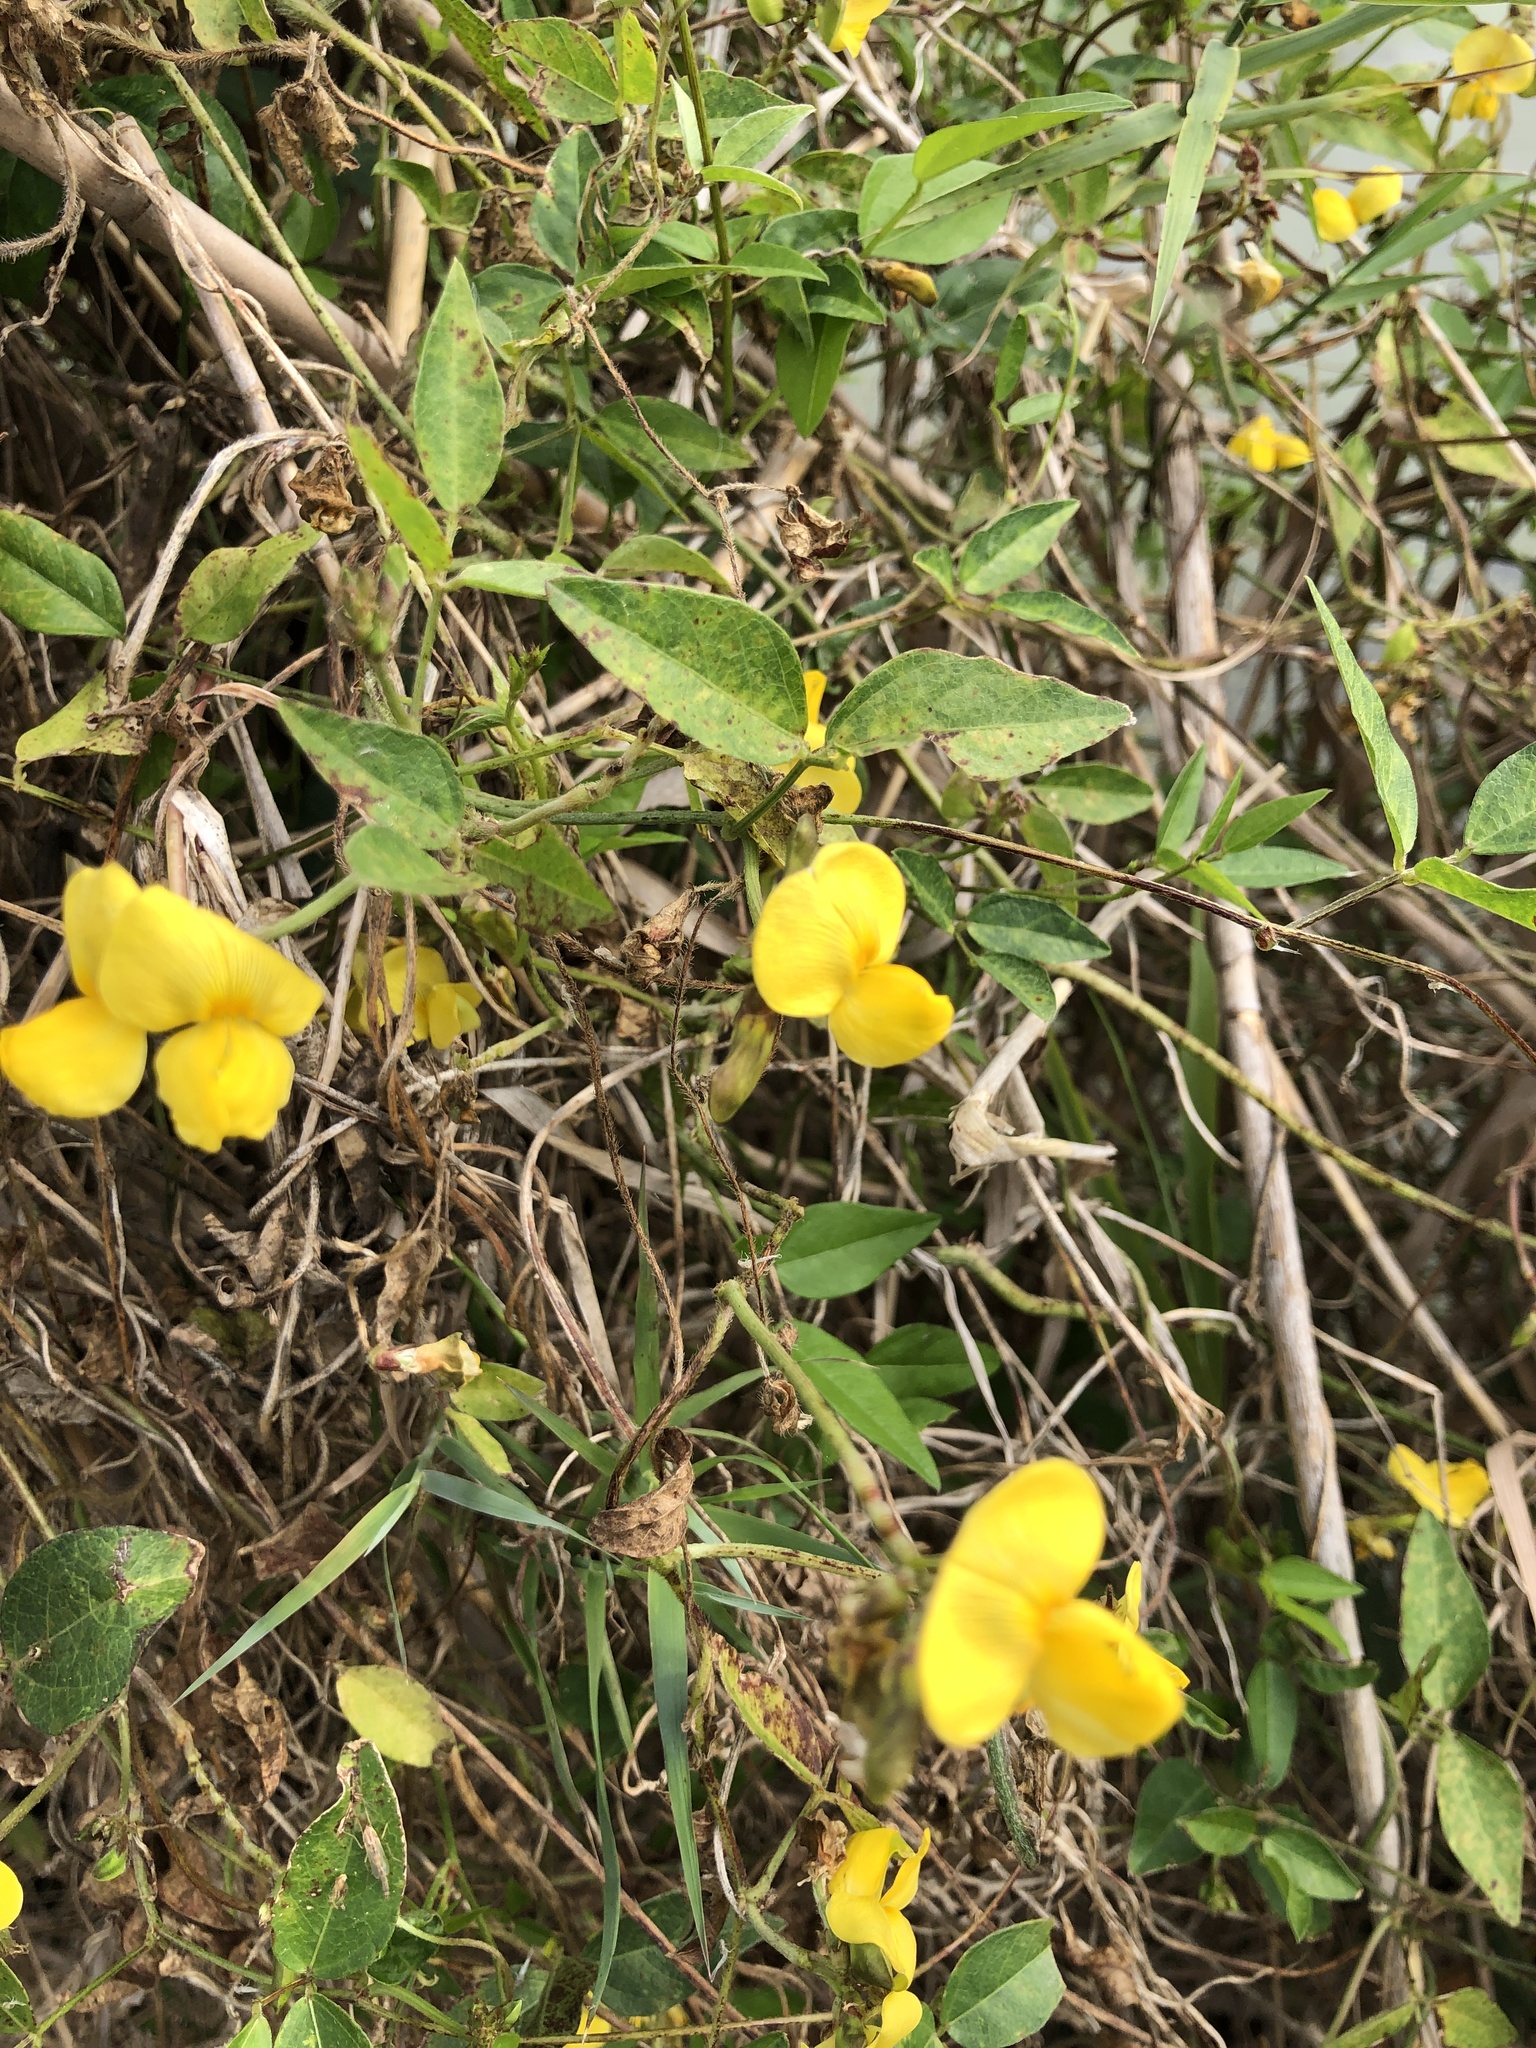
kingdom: Plantae
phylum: Tracheophyta
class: Magnoliopsida
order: Fabales
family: Fabaceae
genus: Vigna
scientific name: Vigna luteola
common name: Hairypod cowpea
